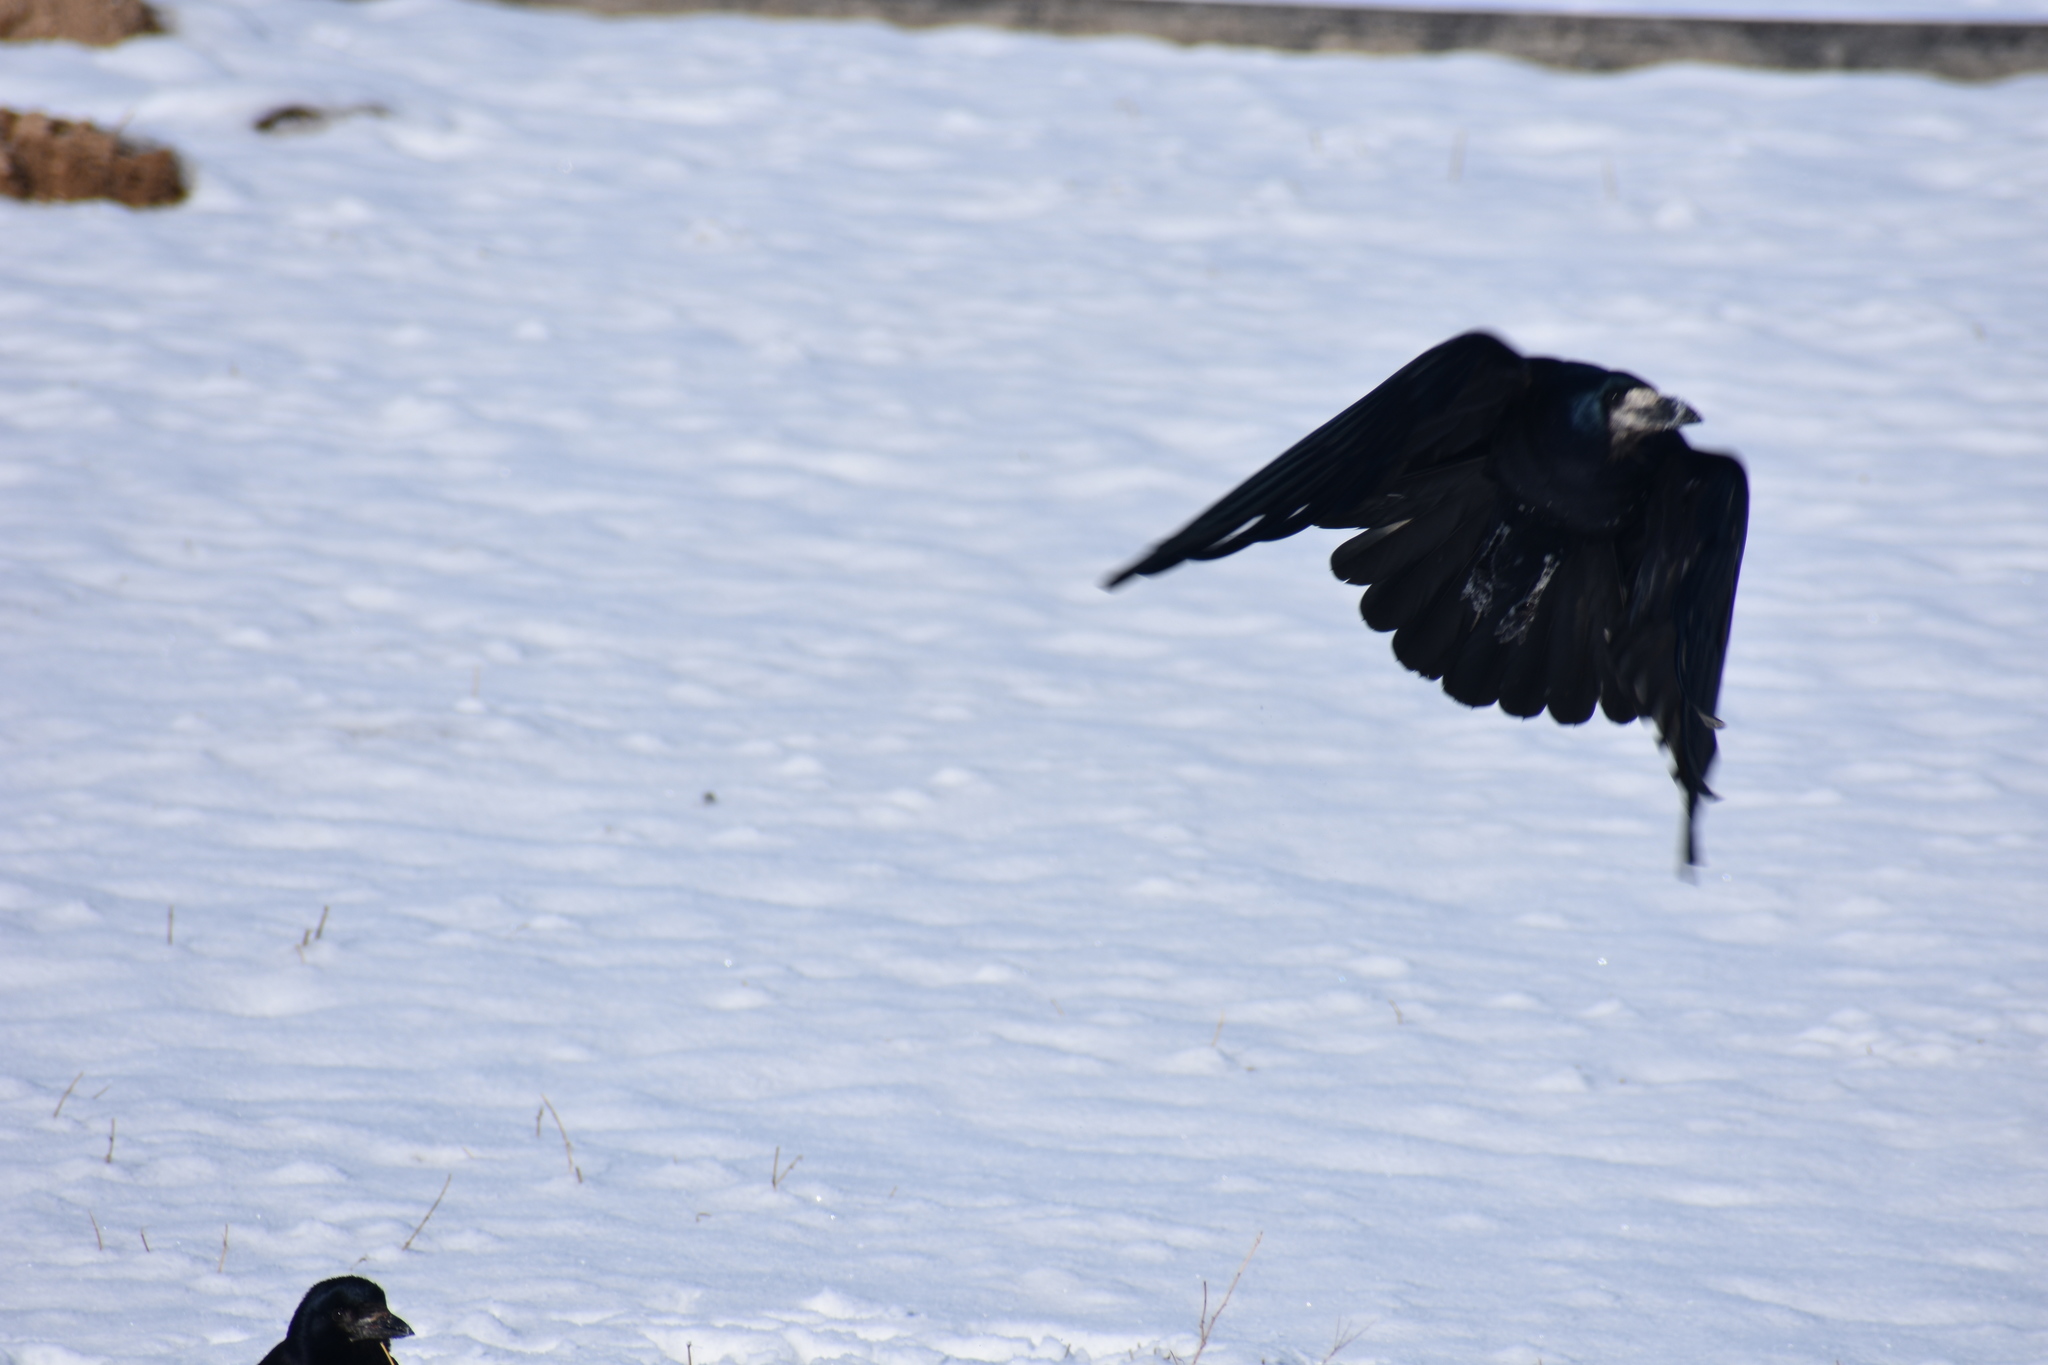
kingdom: Animalia
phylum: Chordata
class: Aves
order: Passeriformes
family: Corvidae
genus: Corvus
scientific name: Corvus frugilegus
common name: Rook
